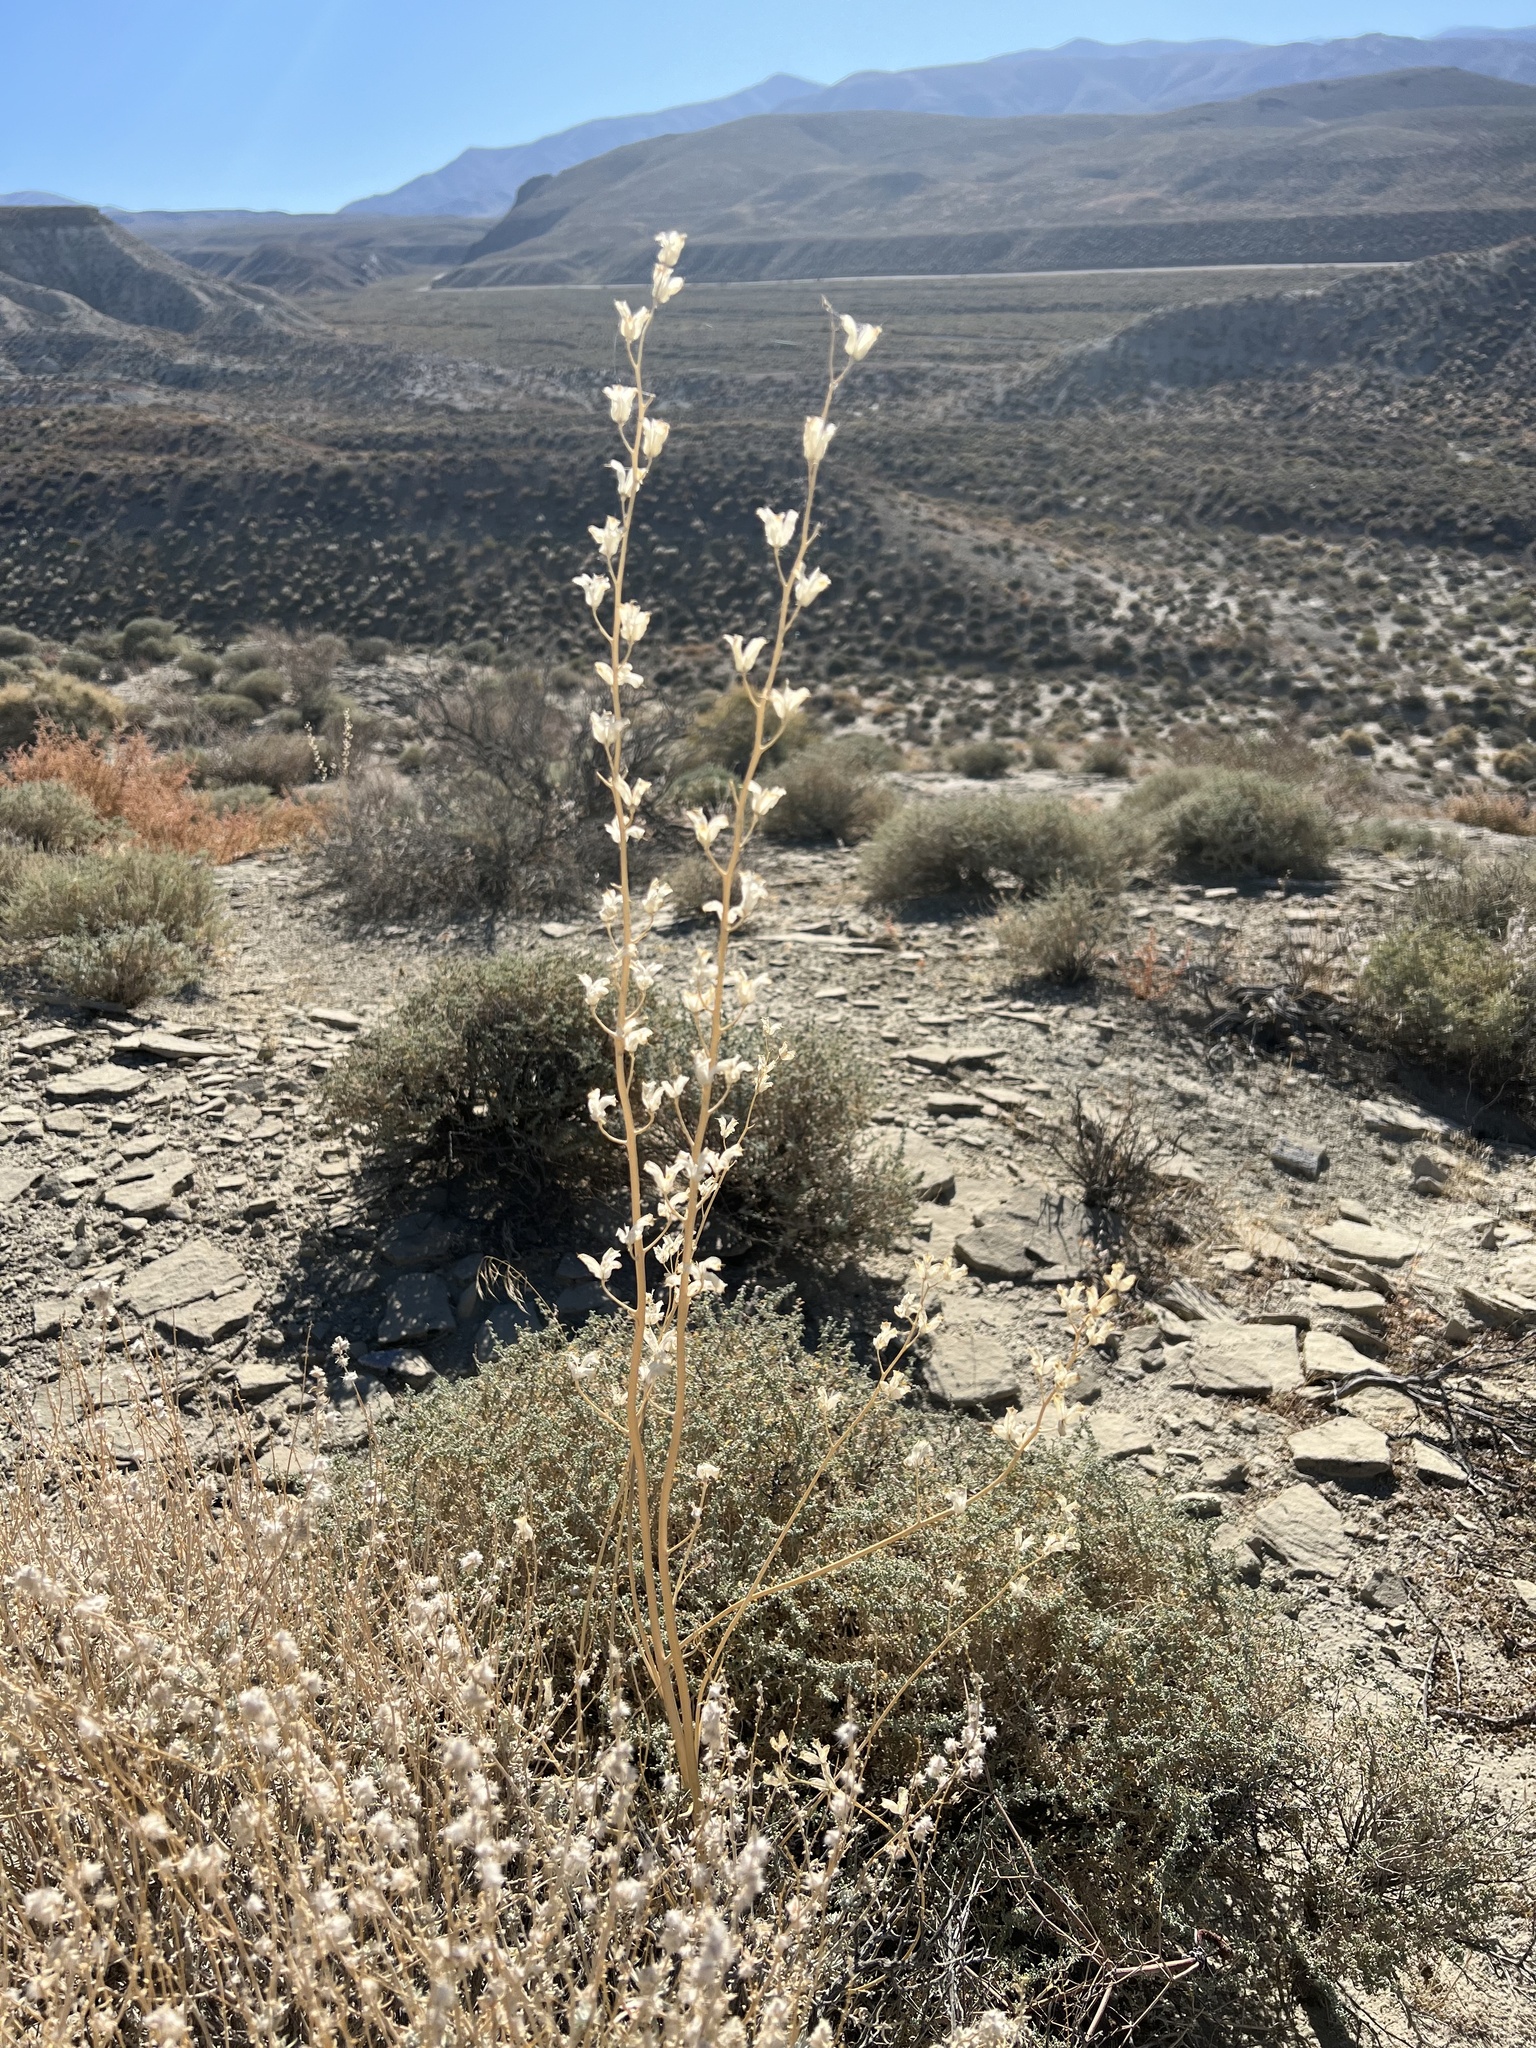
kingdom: Plantae
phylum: Tracheophyta
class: Magnoliopsida
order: Ranunculales
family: Ranunculaceae
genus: Delphinium
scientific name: Delphinium parishii
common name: Apache larkspur
